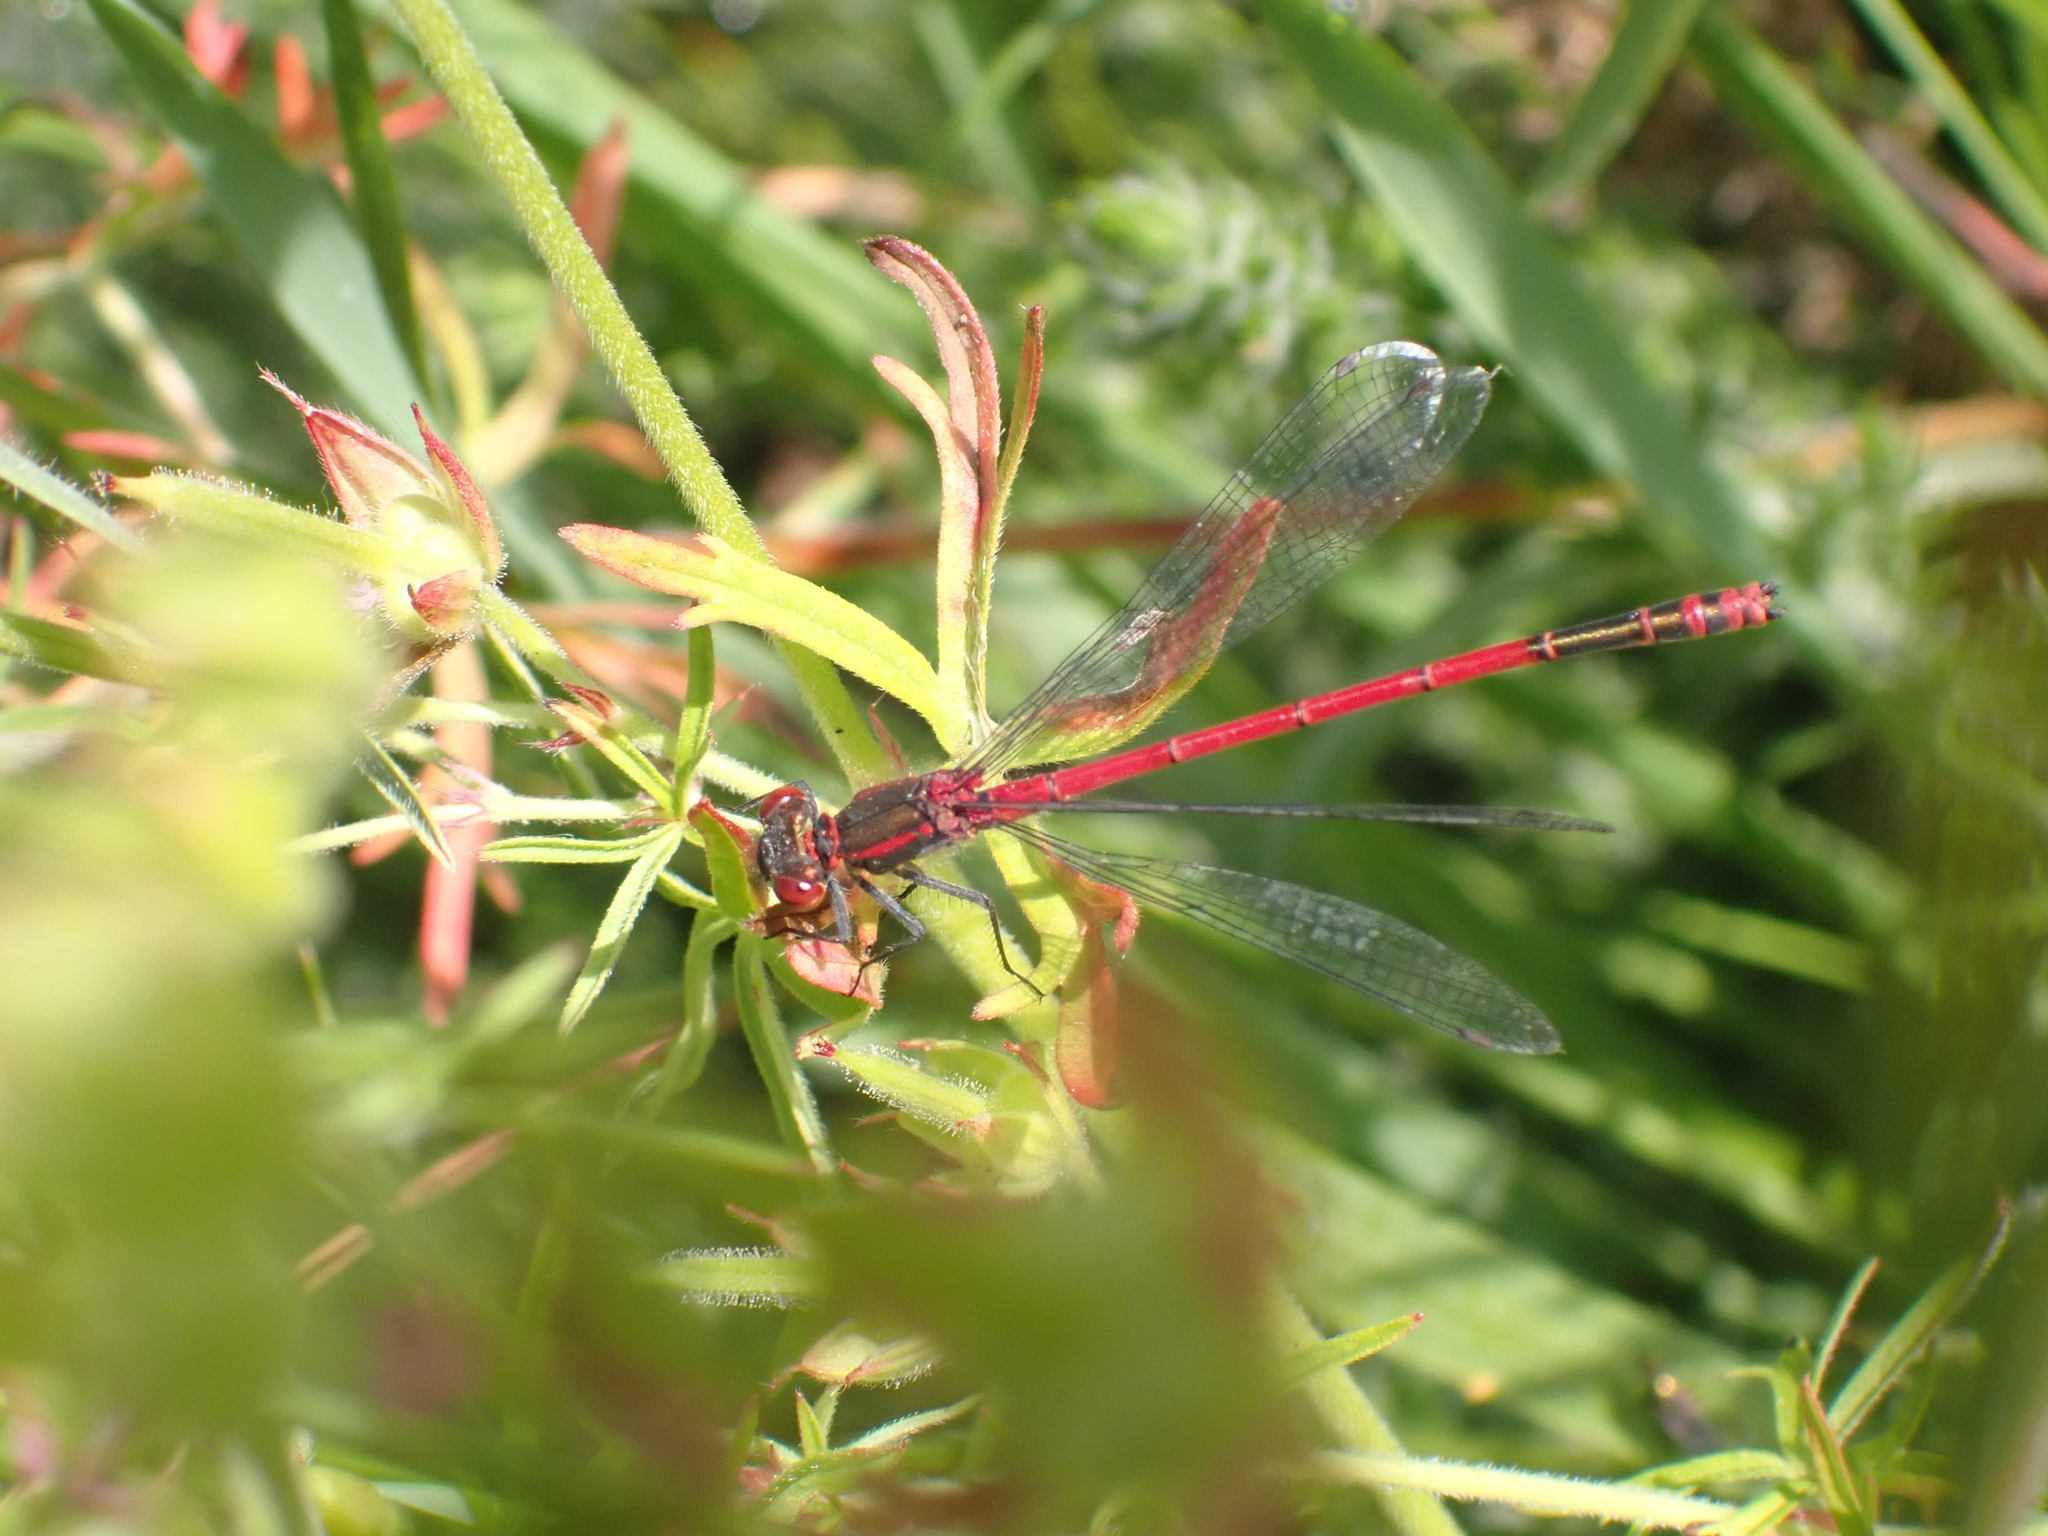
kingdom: Animalia
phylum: Arthropoda
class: Insecta
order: Odonata
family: Coenagrionidae
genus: Pyrrhosoma
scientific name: Pyrrhosoma nymphula
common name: Large red damsel
